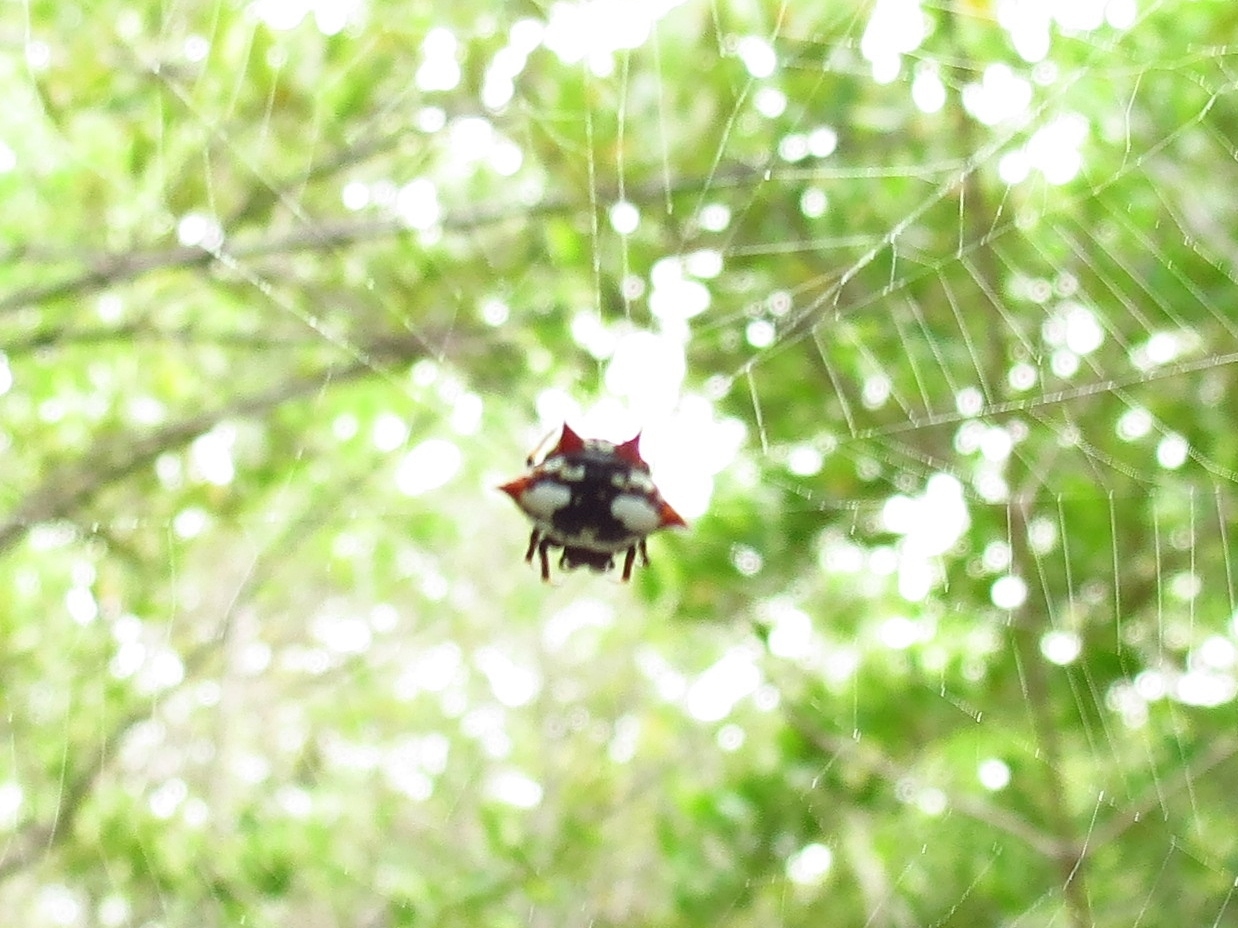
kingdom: Animalia
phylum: Arthropoda
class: Arachnida
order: Araneae
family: Araneidae
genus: Gasteracantha
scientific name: Gasteracantha cancriformis
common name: Orb weavers
